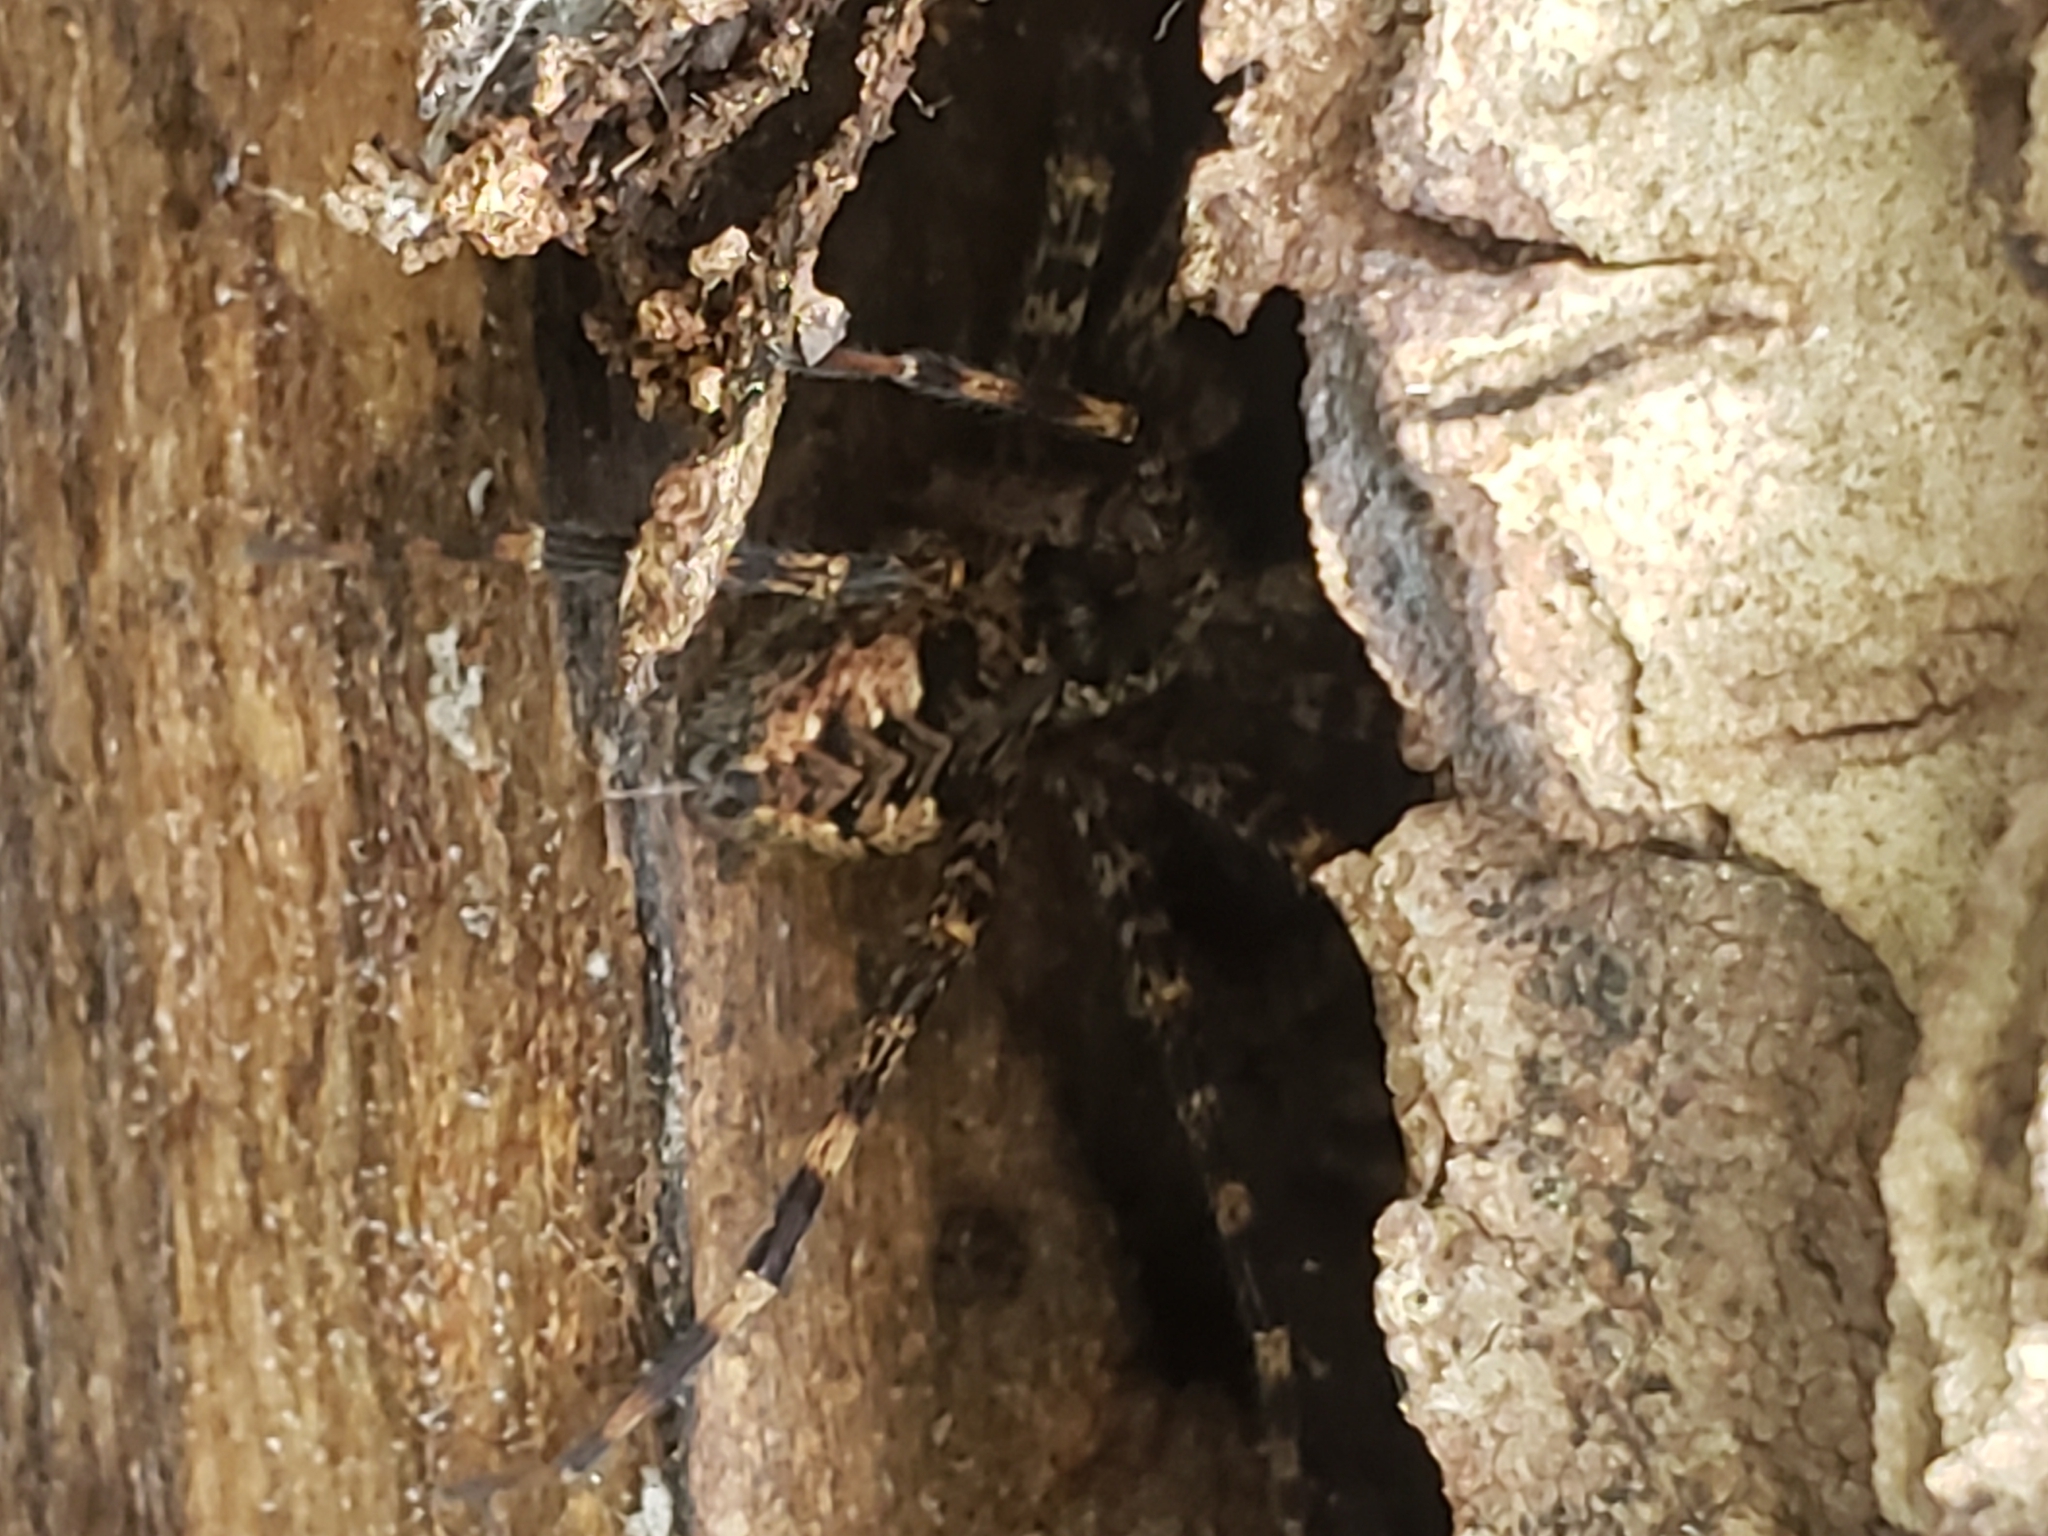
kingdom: Animalia
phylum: Arthropoda
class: Arachnida
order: Araneae
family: Pisauridae
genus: Dolomedes
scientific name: Dolomedes tenebrosus
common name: Dark fishing spider
